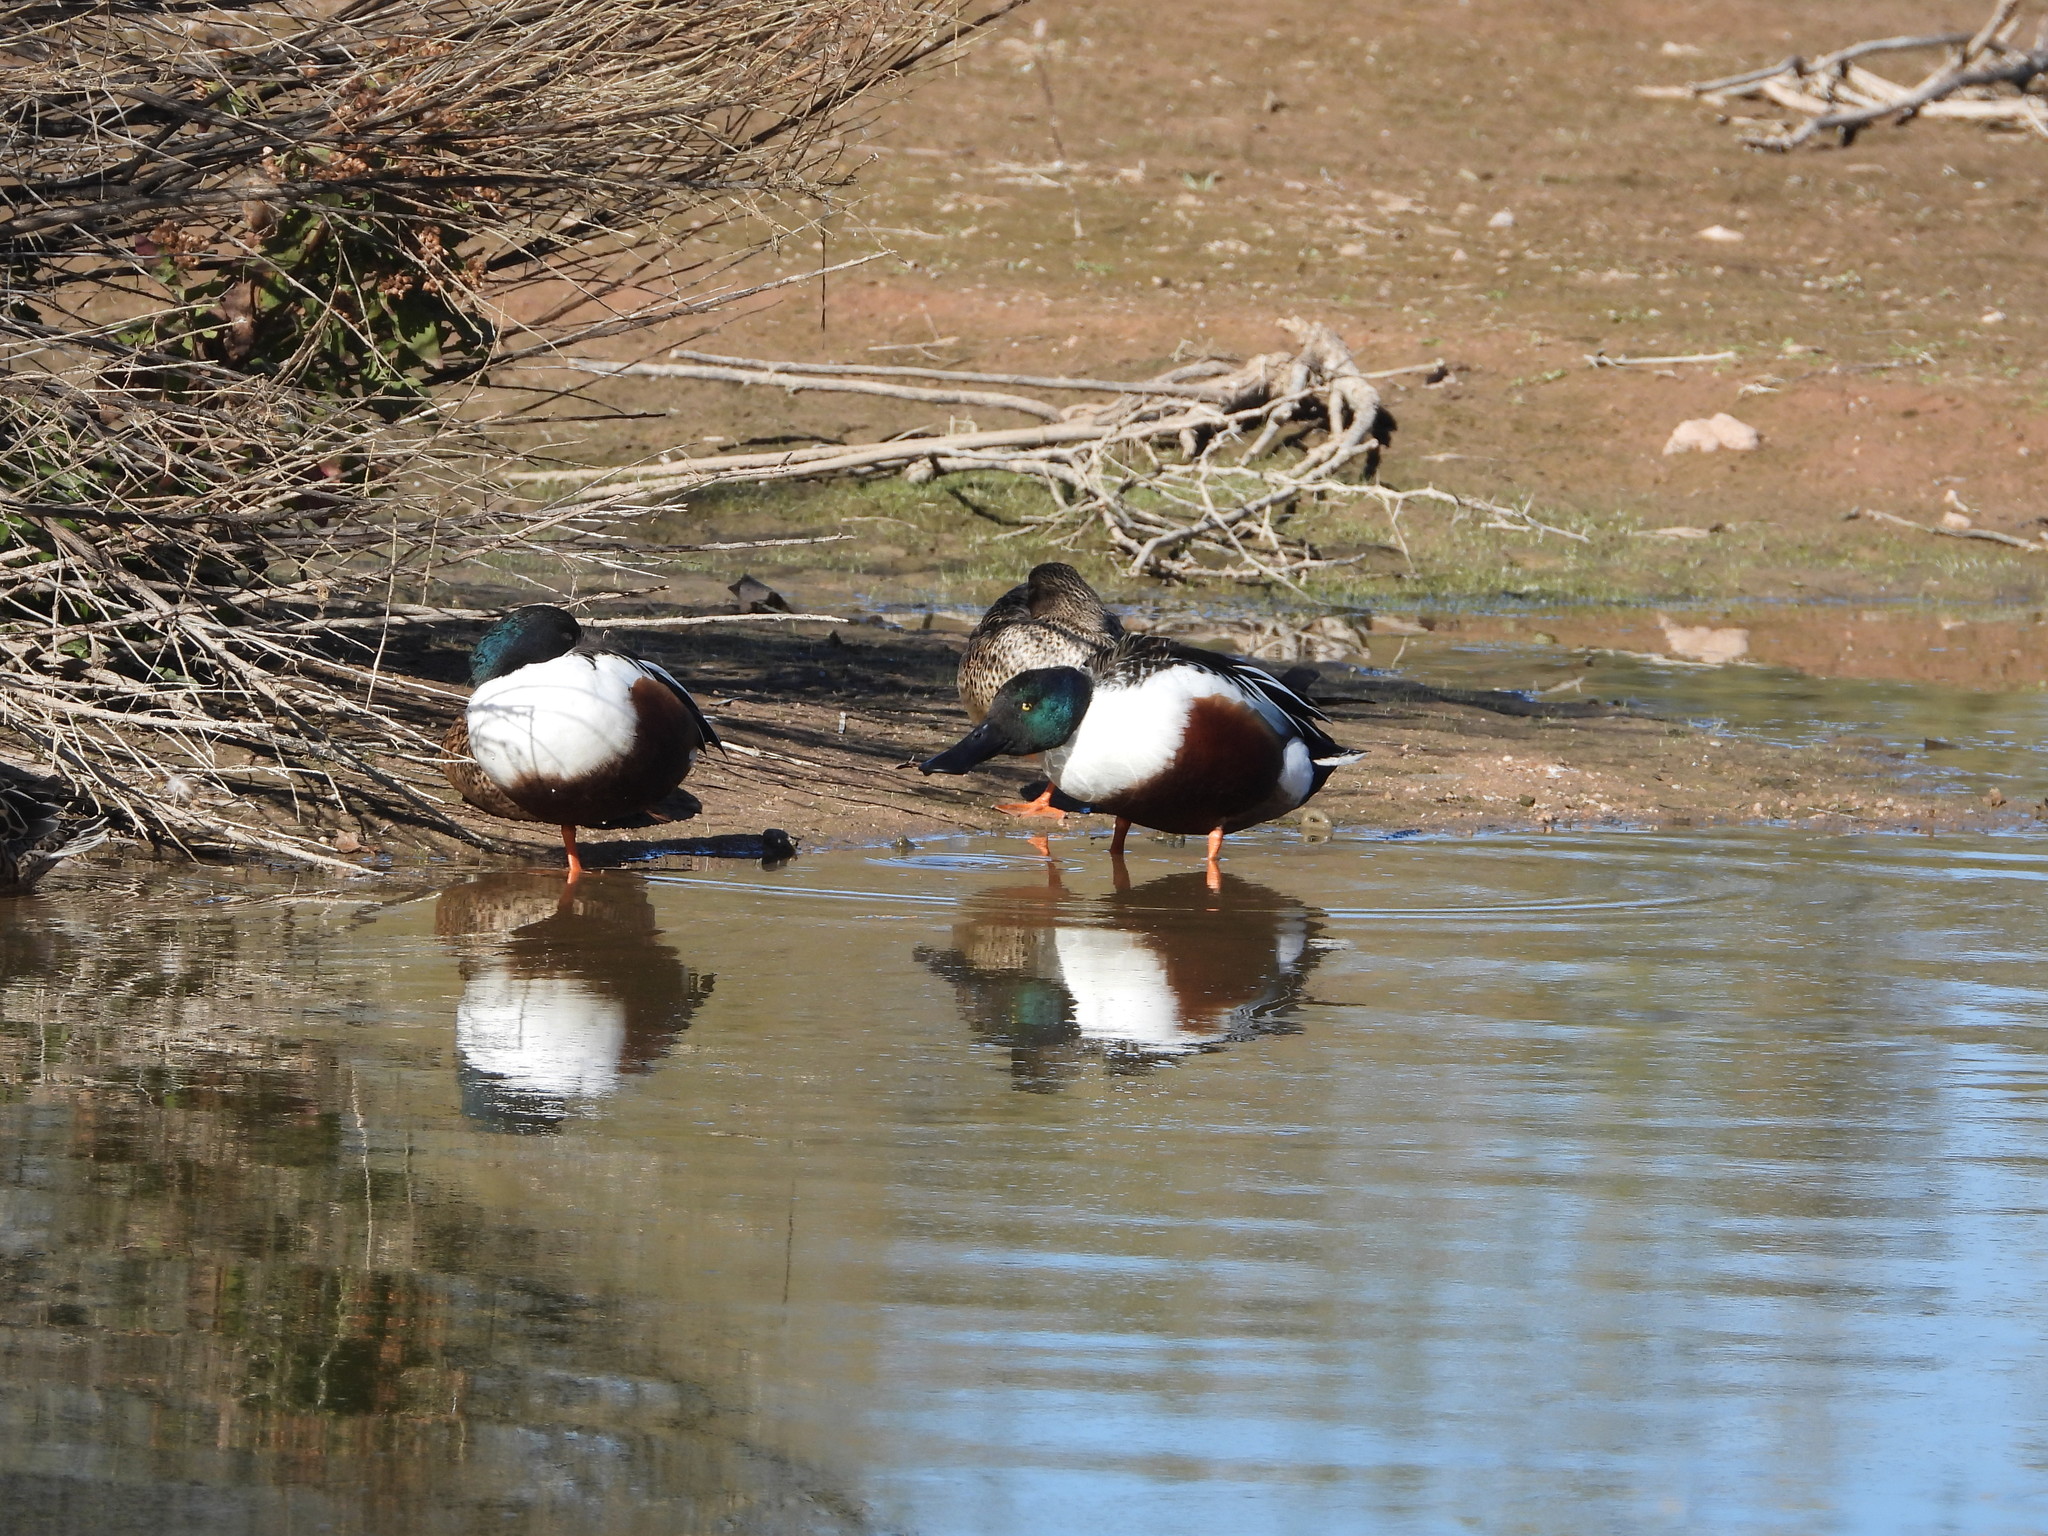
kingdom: Animalia
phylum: Chordata
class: Aves
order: Anseriformes
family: Anatidae
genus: Spatula
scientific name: Spatula clypeata
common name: Northern shoveler
